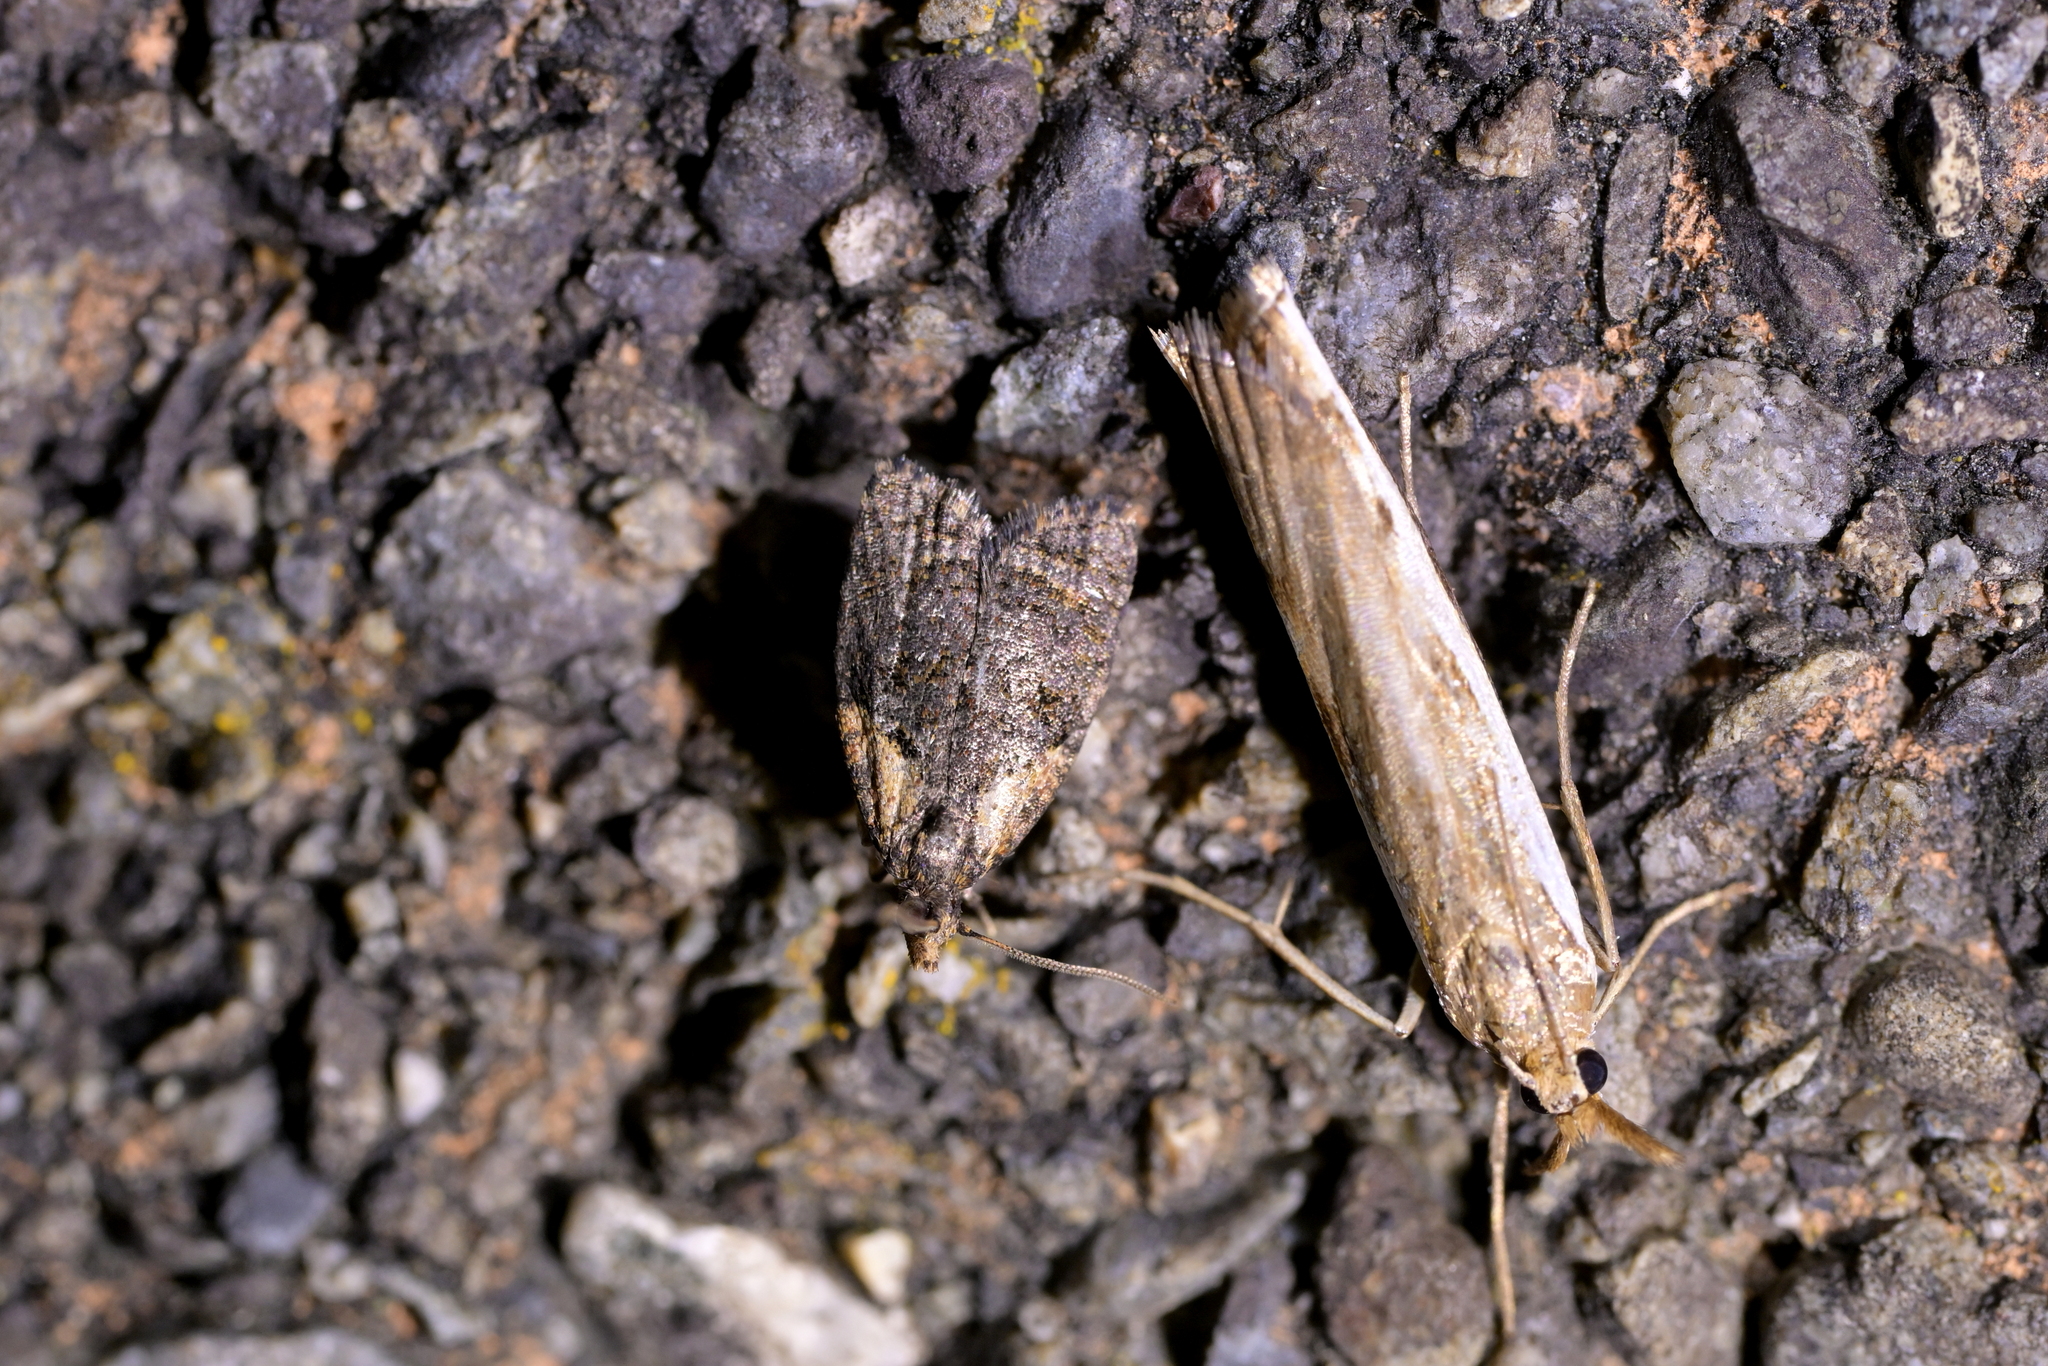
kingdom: Animalia
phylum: Arthropoda
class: Insecta
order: Lepidoptera
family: Tortricidae
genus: Capua
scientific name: Capua intractana
